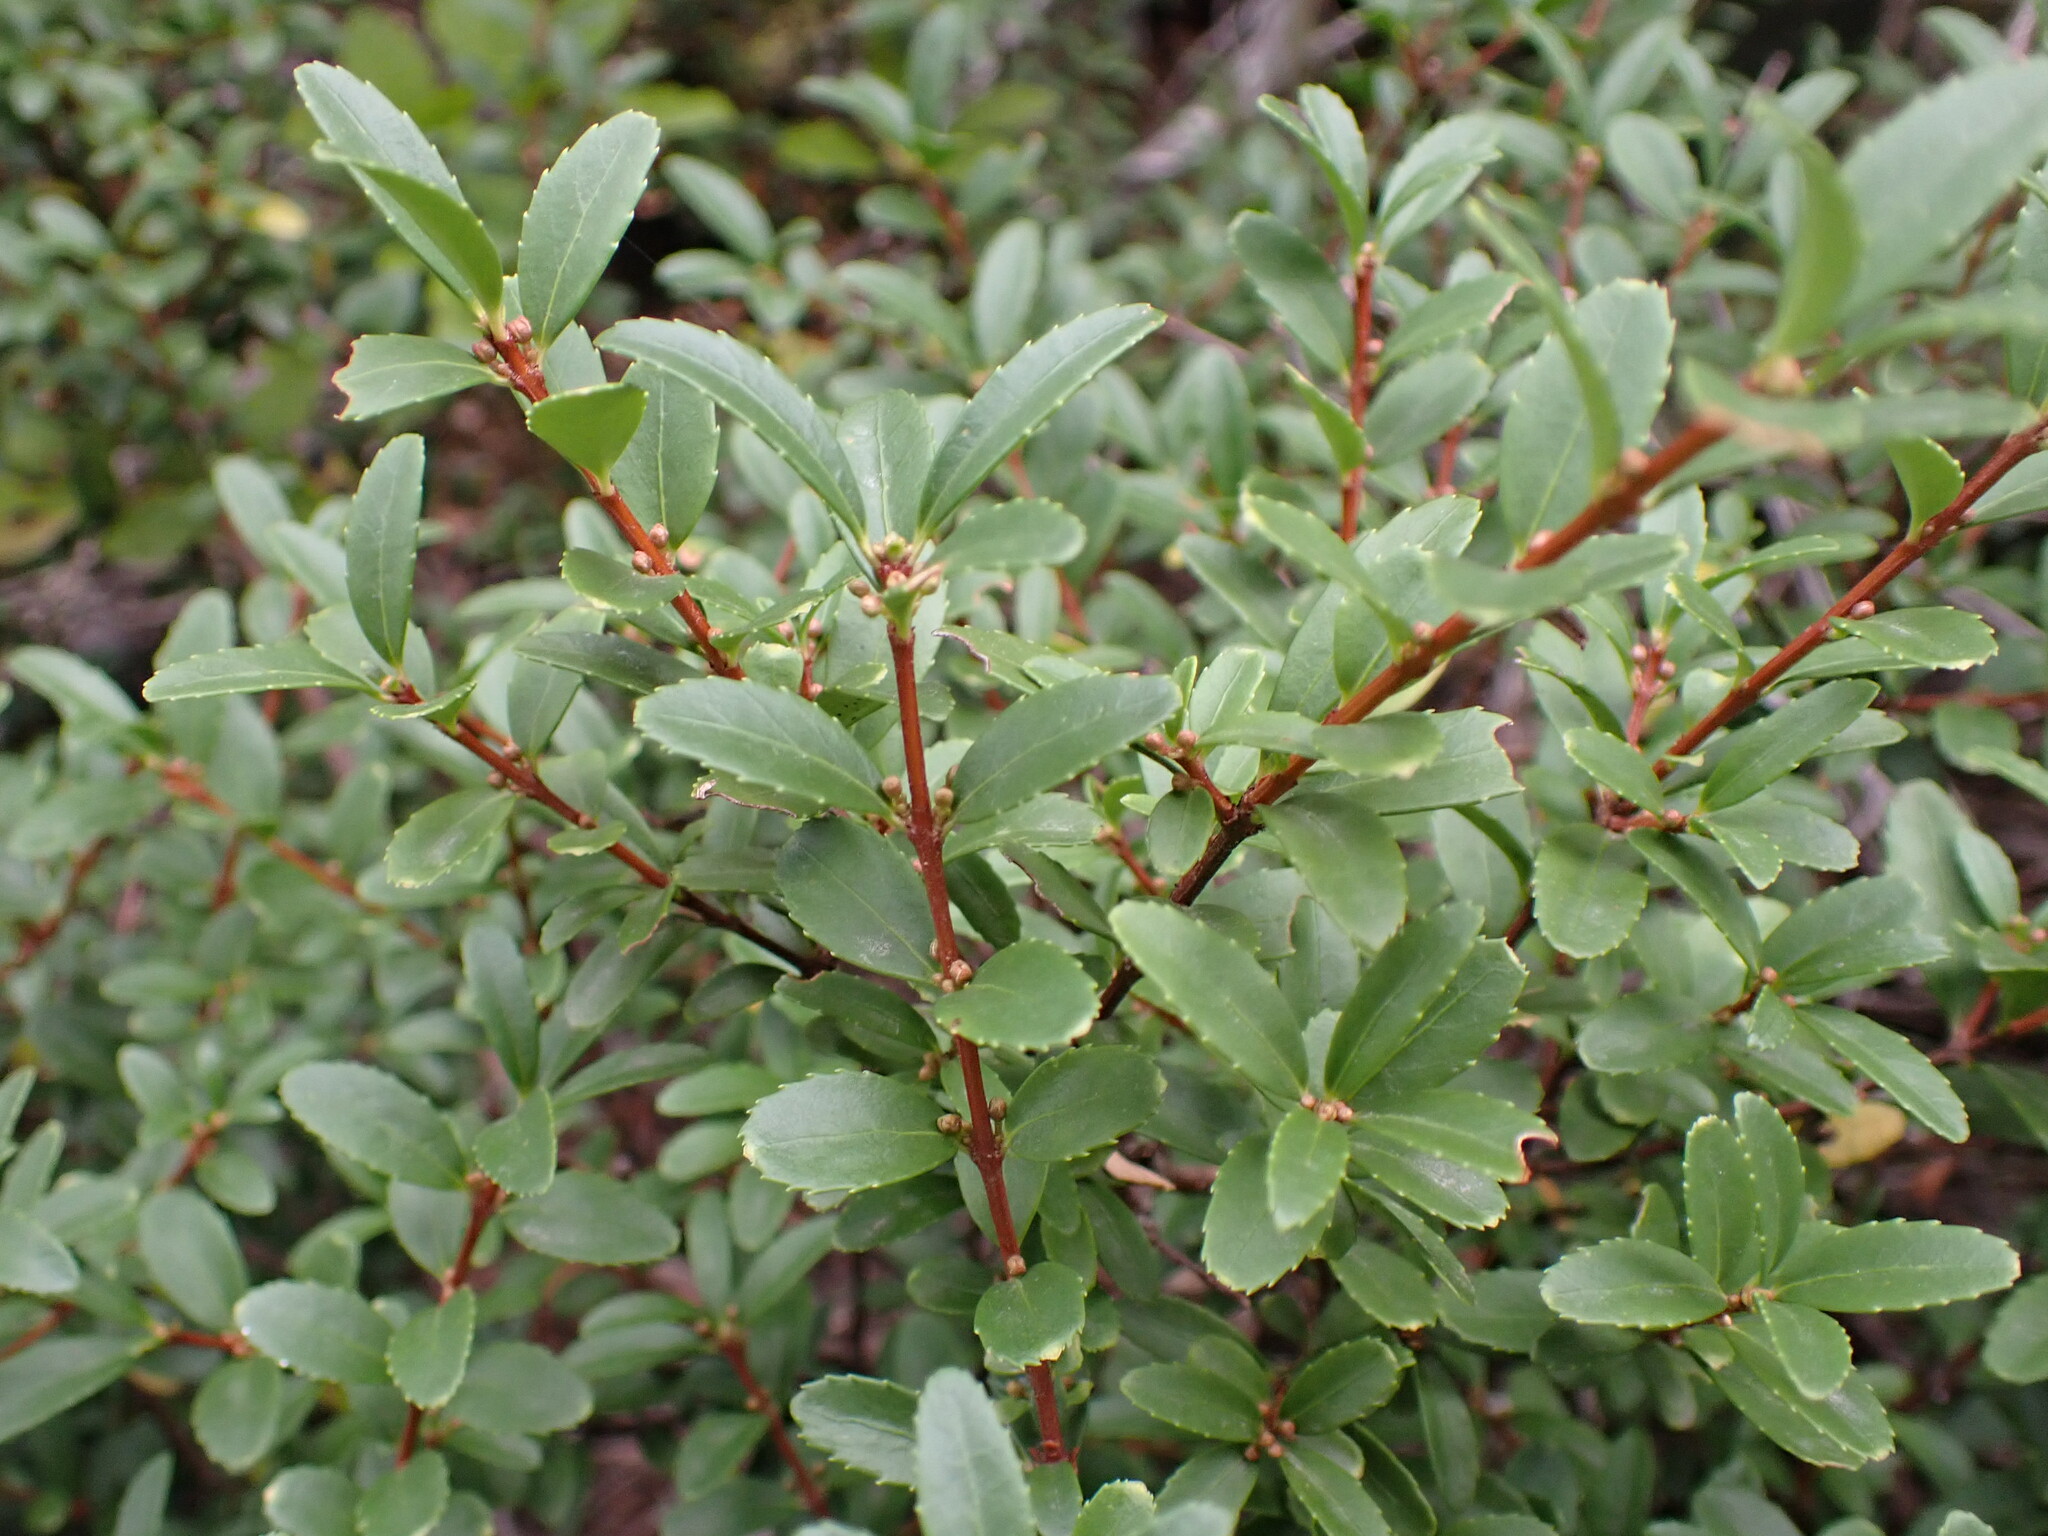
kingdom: Plantae
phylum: Tracheophyta
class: Magnoliopsida
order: Celastrales
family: Celastraceae
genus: Paxistima
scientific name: Paxistima myrsinites
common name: Mountain-lover
